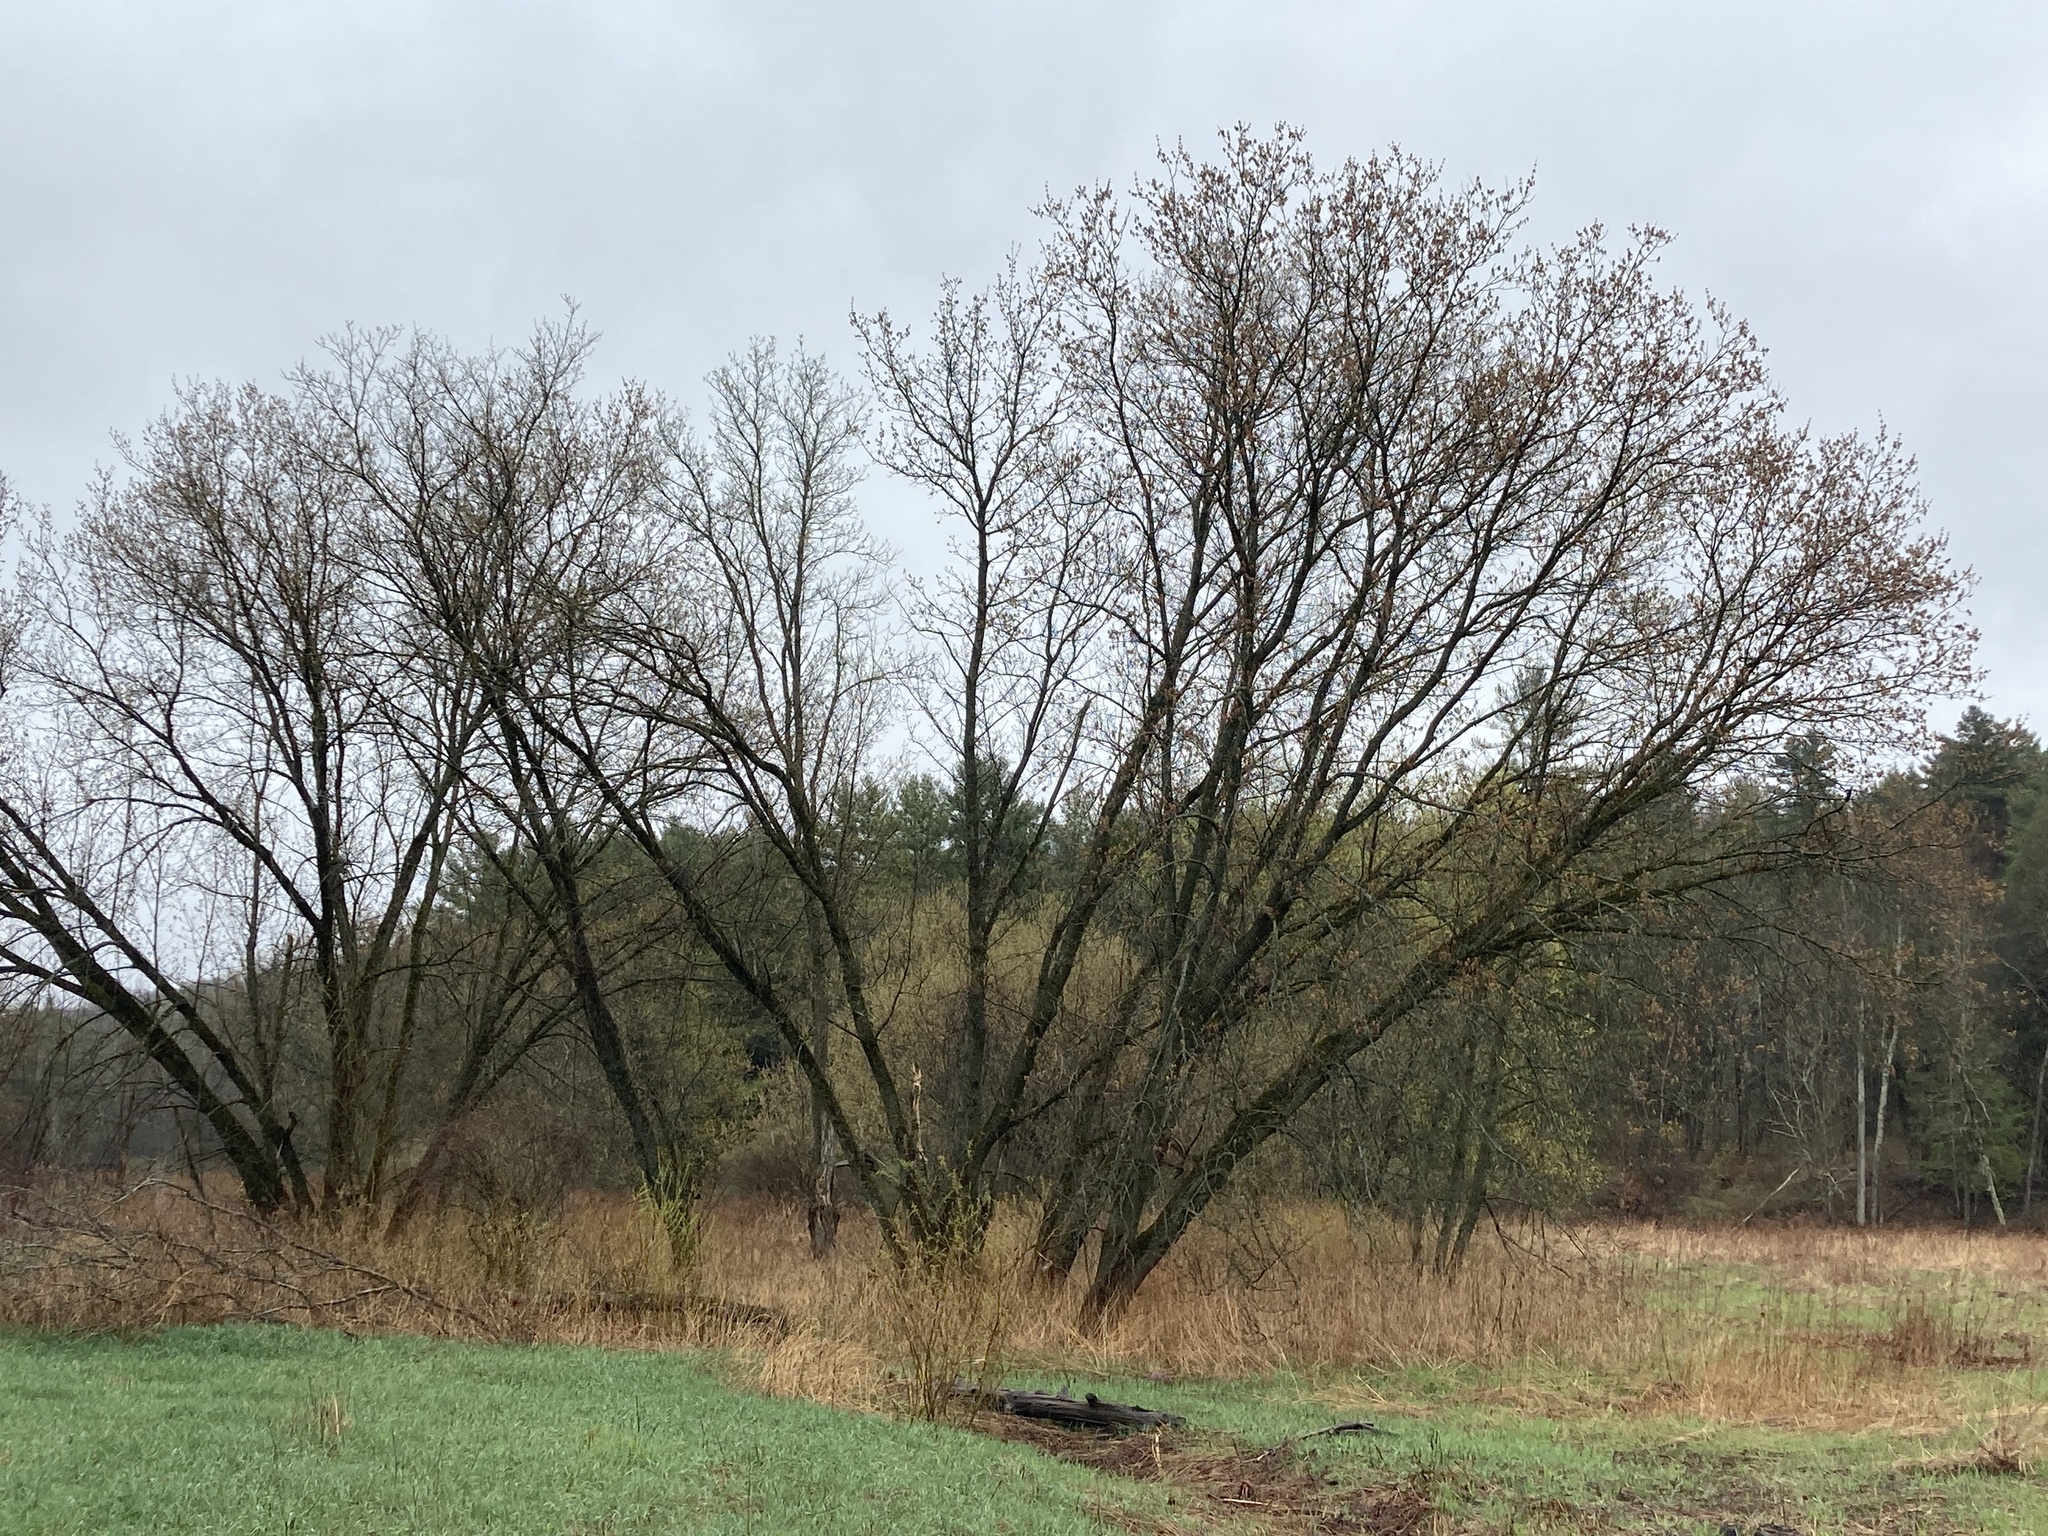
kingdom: Plantae
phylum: Tracheophyta
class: Magnoliopsida
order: Sapindales
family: Sapindaceae
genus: Acer
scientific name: Acer saccharinum
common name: Silver maple
